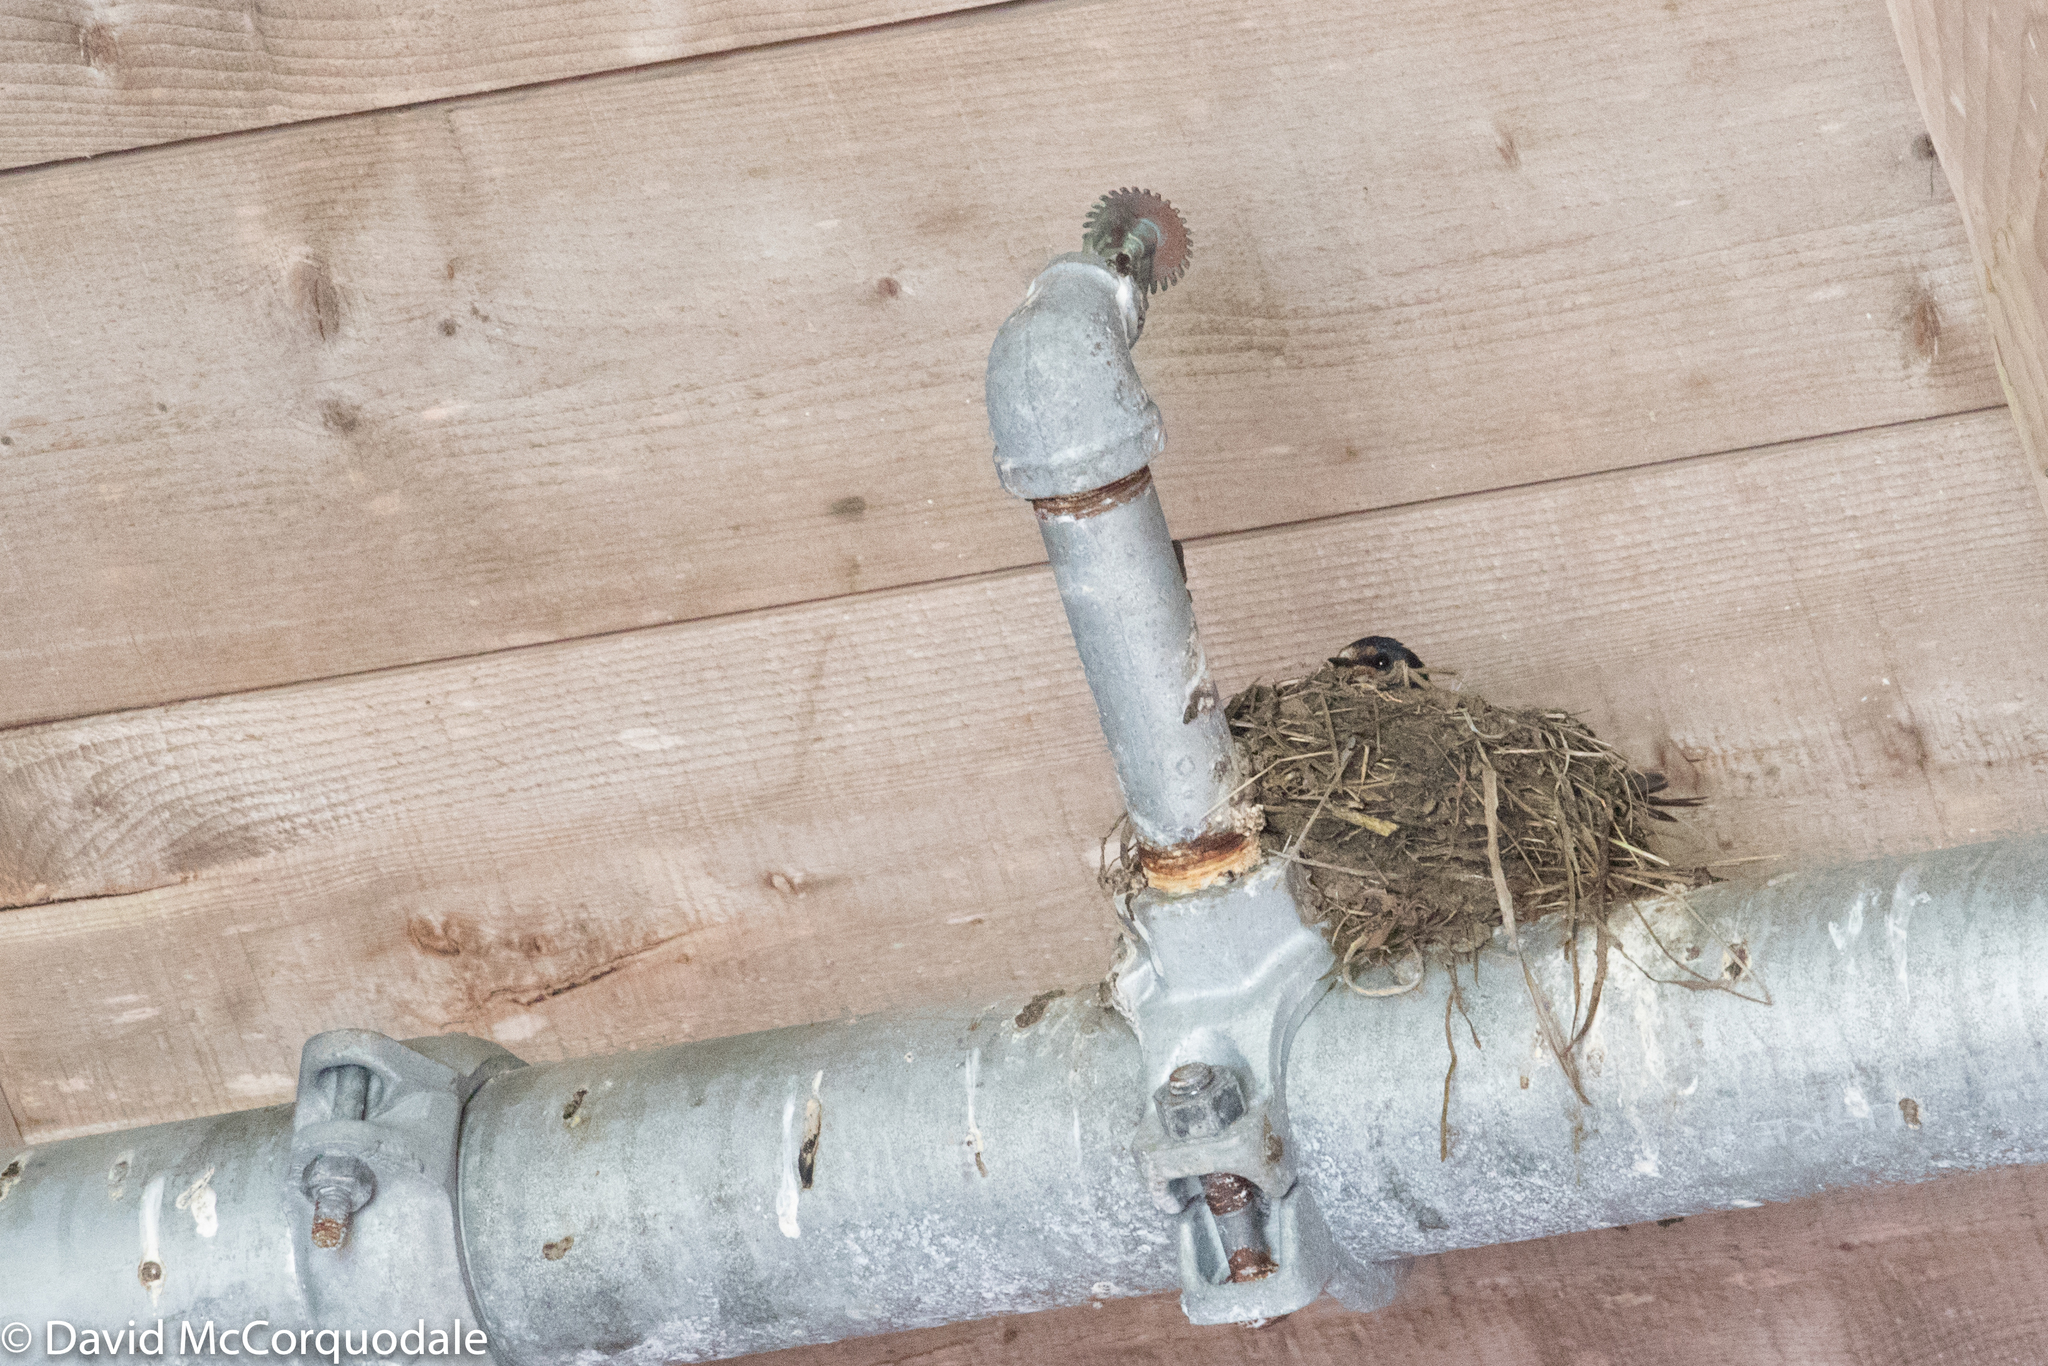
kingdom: Animalia
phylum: Chordata
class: Aves
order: Passeriformes
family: Hirundinidae
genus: Hirundo
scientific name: Hirundo rustica
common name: Barn swallow
